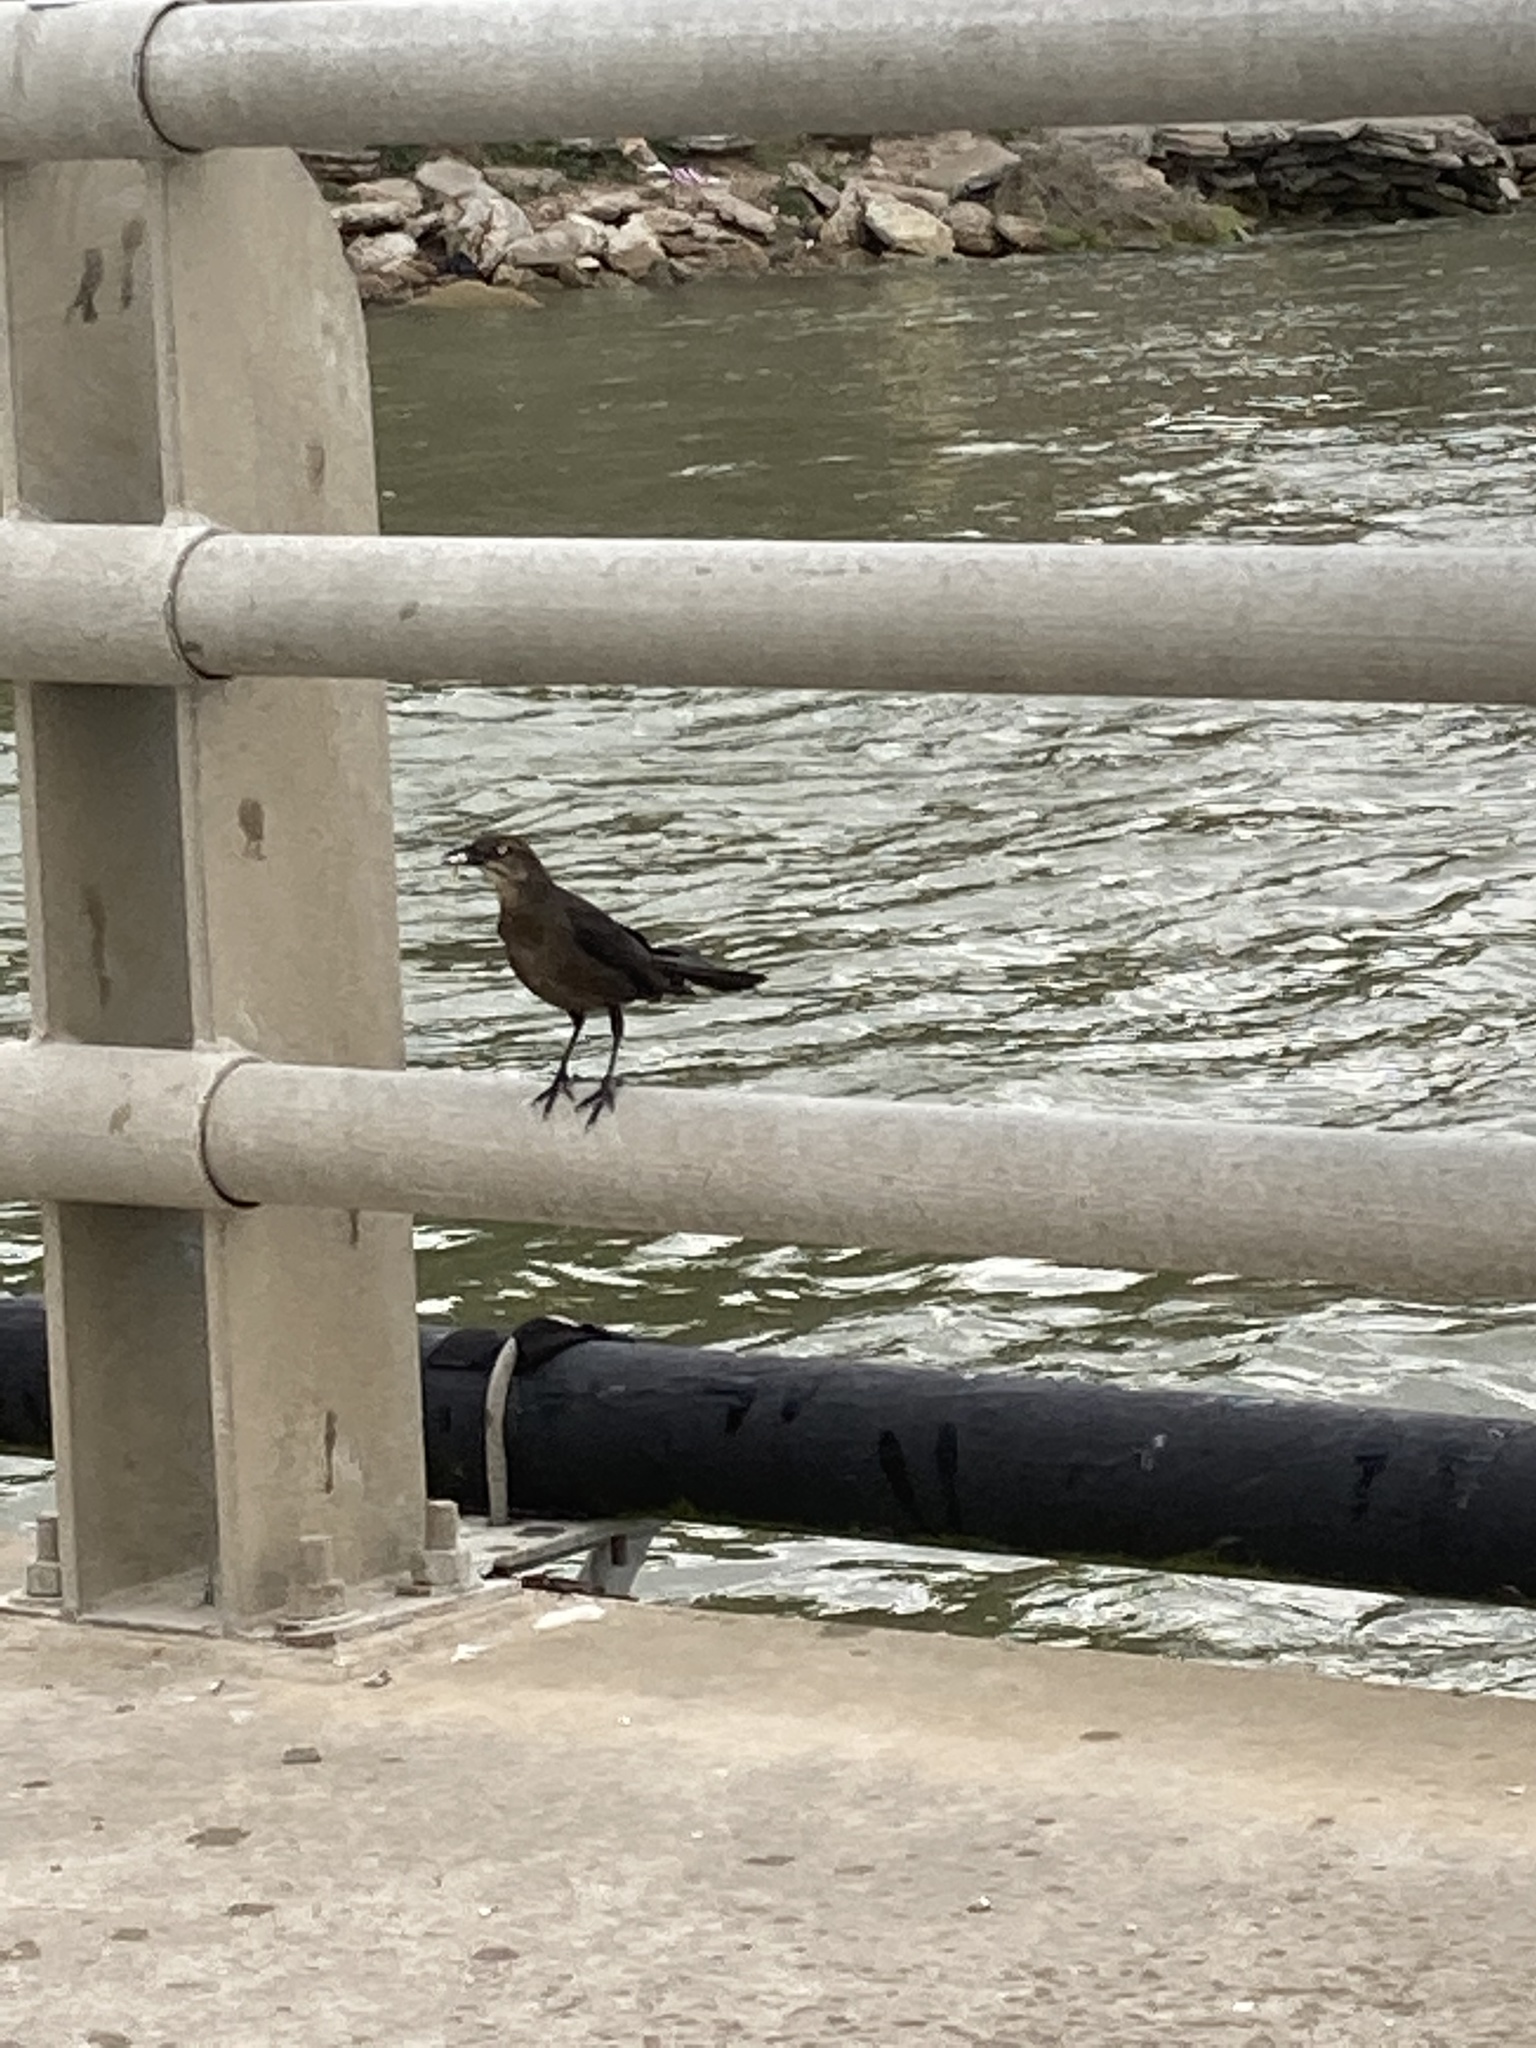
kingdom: Animalia
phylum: Chordata
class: Aves
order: Passeriformes
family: Icteridae
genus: Quiscalus
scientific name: Quiscalus mexicanus
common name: Great-tailed grackle
